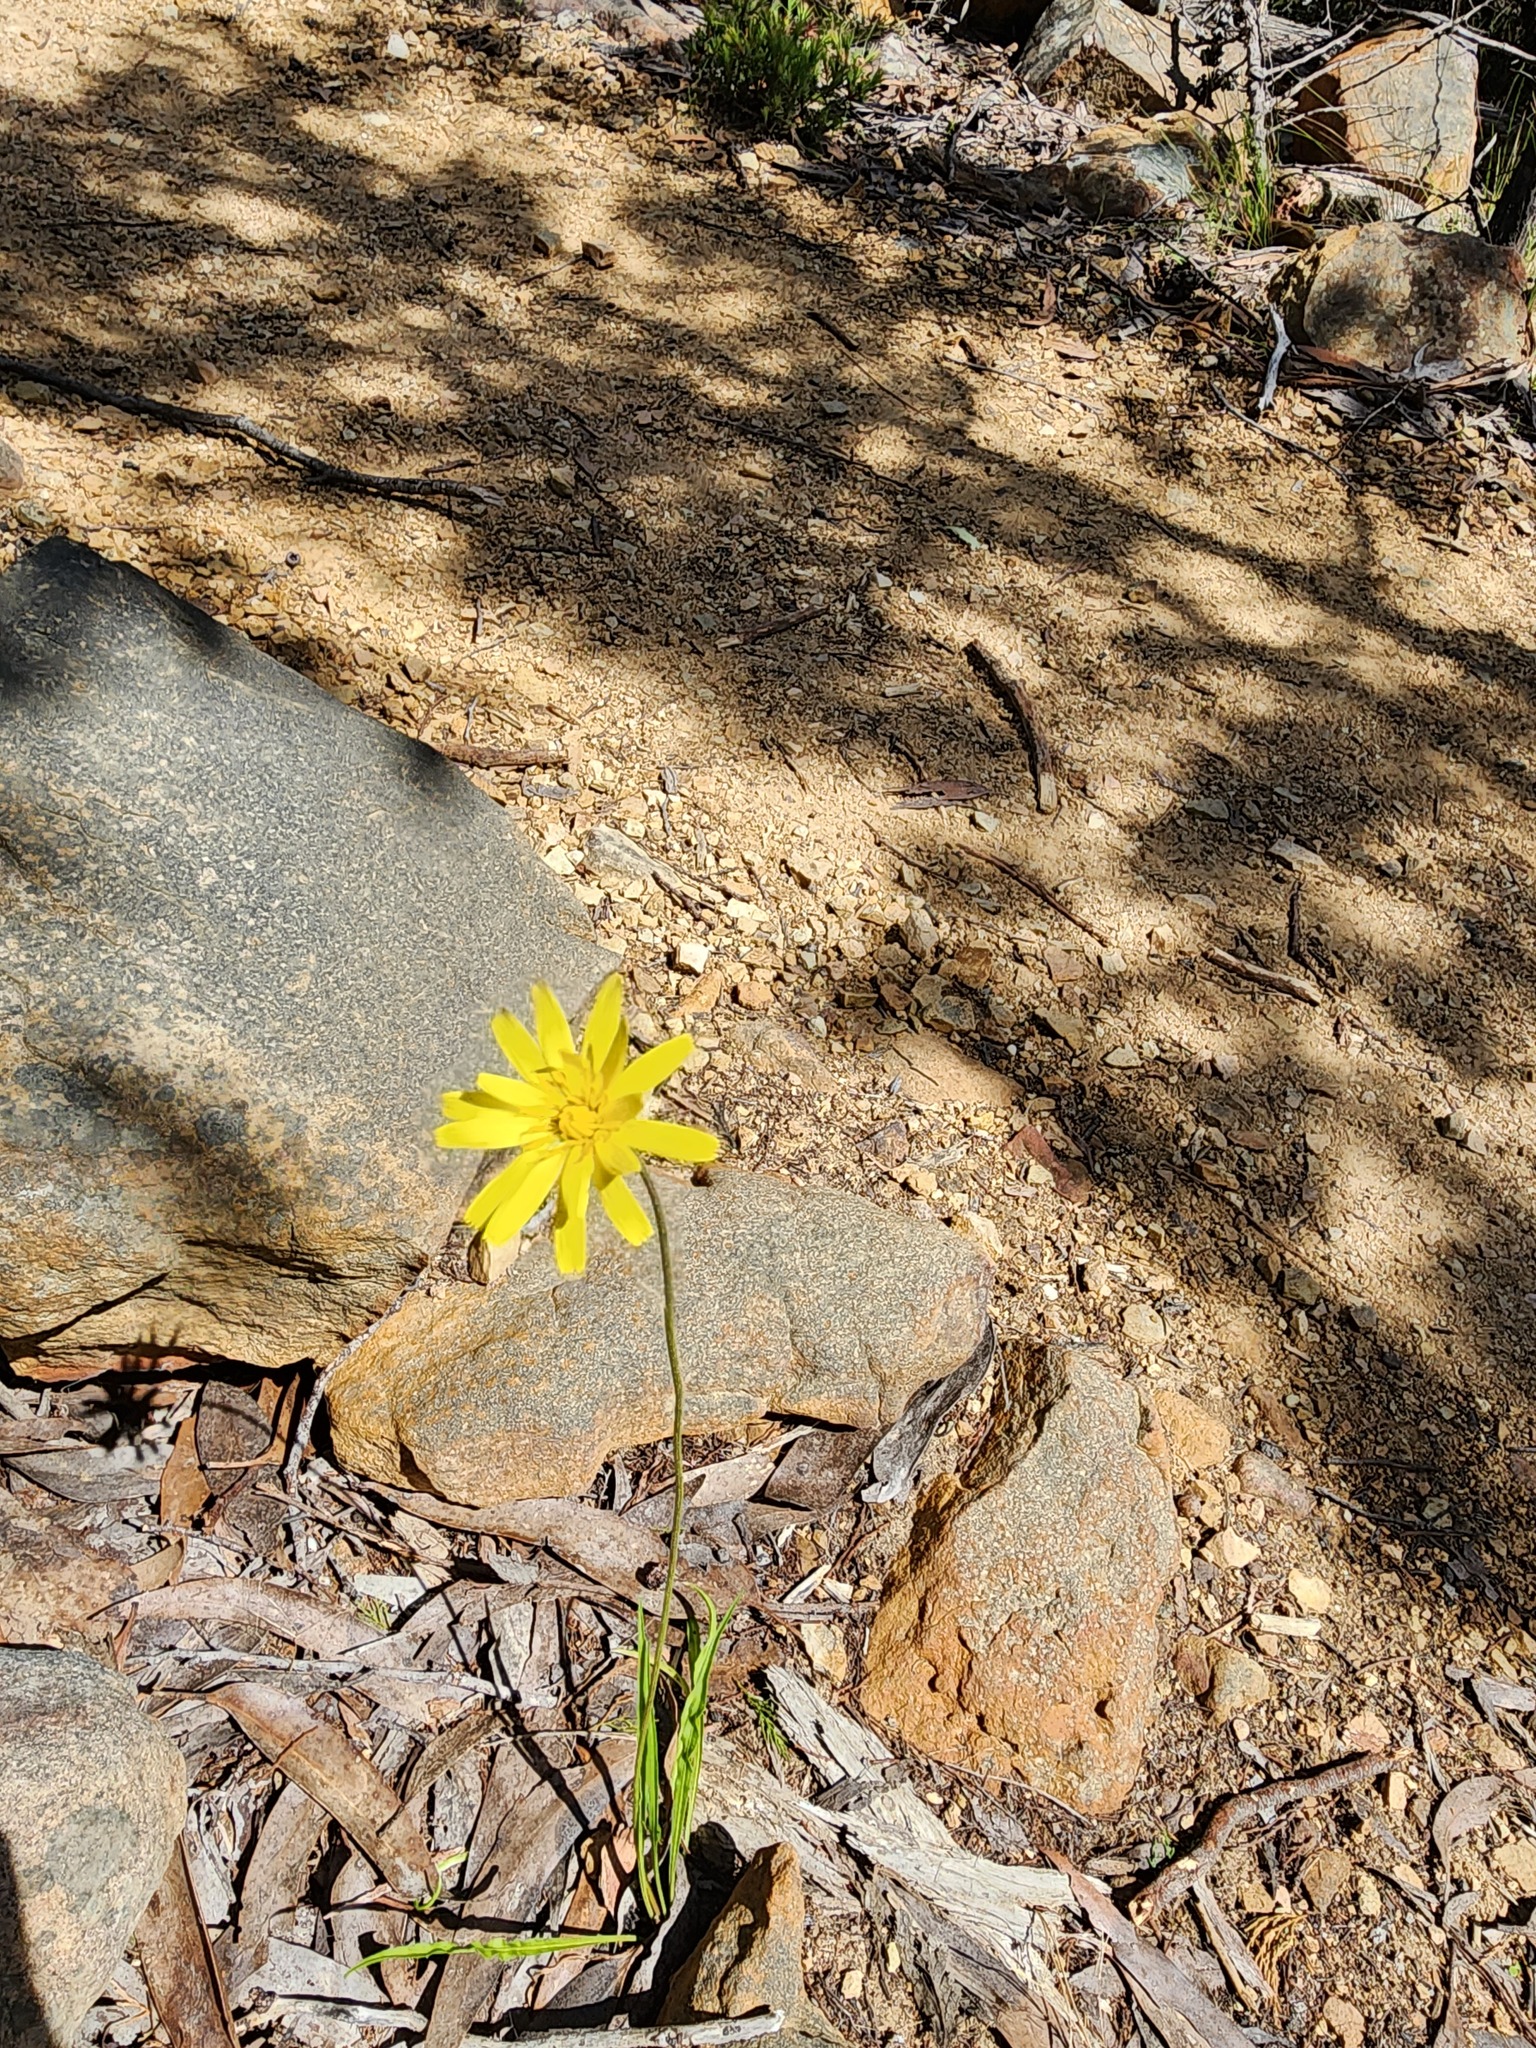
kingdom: Plantae
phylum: Tracheophyta
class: Magnoliopsida
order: Asterales
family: Asteraceae
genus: Microseris
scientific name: Microseris lanceolata
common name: Yam daisy
